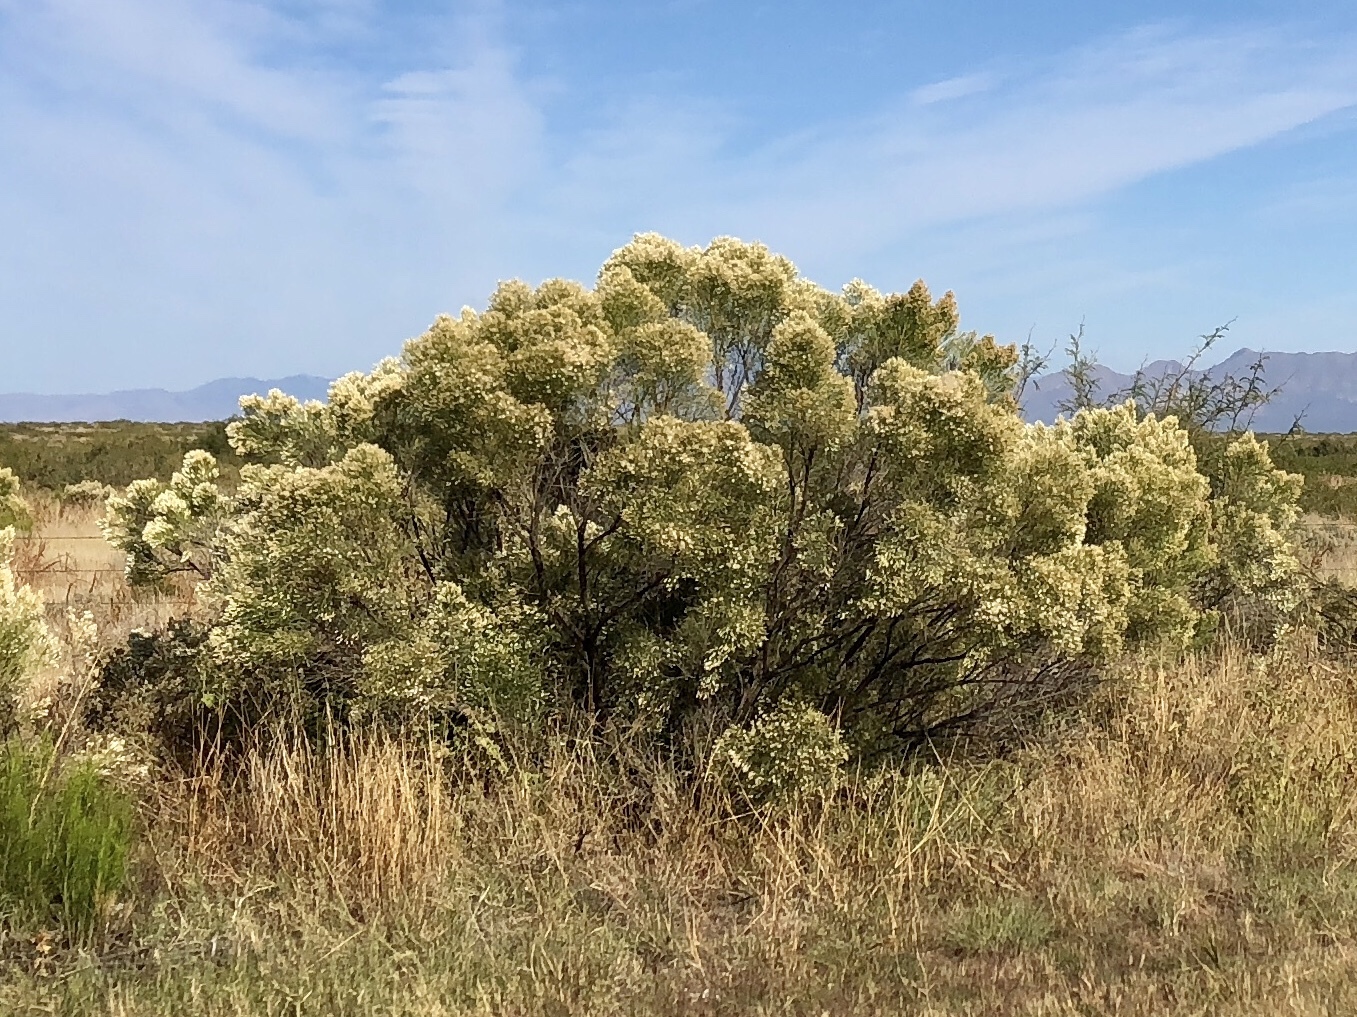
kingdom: Plantae
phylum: Tracheophyta
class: Magnoliopsida
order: Asterales
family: Asteraceae
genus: Baccharis
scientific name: Baccharis sarothroides
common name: Desert-broom
